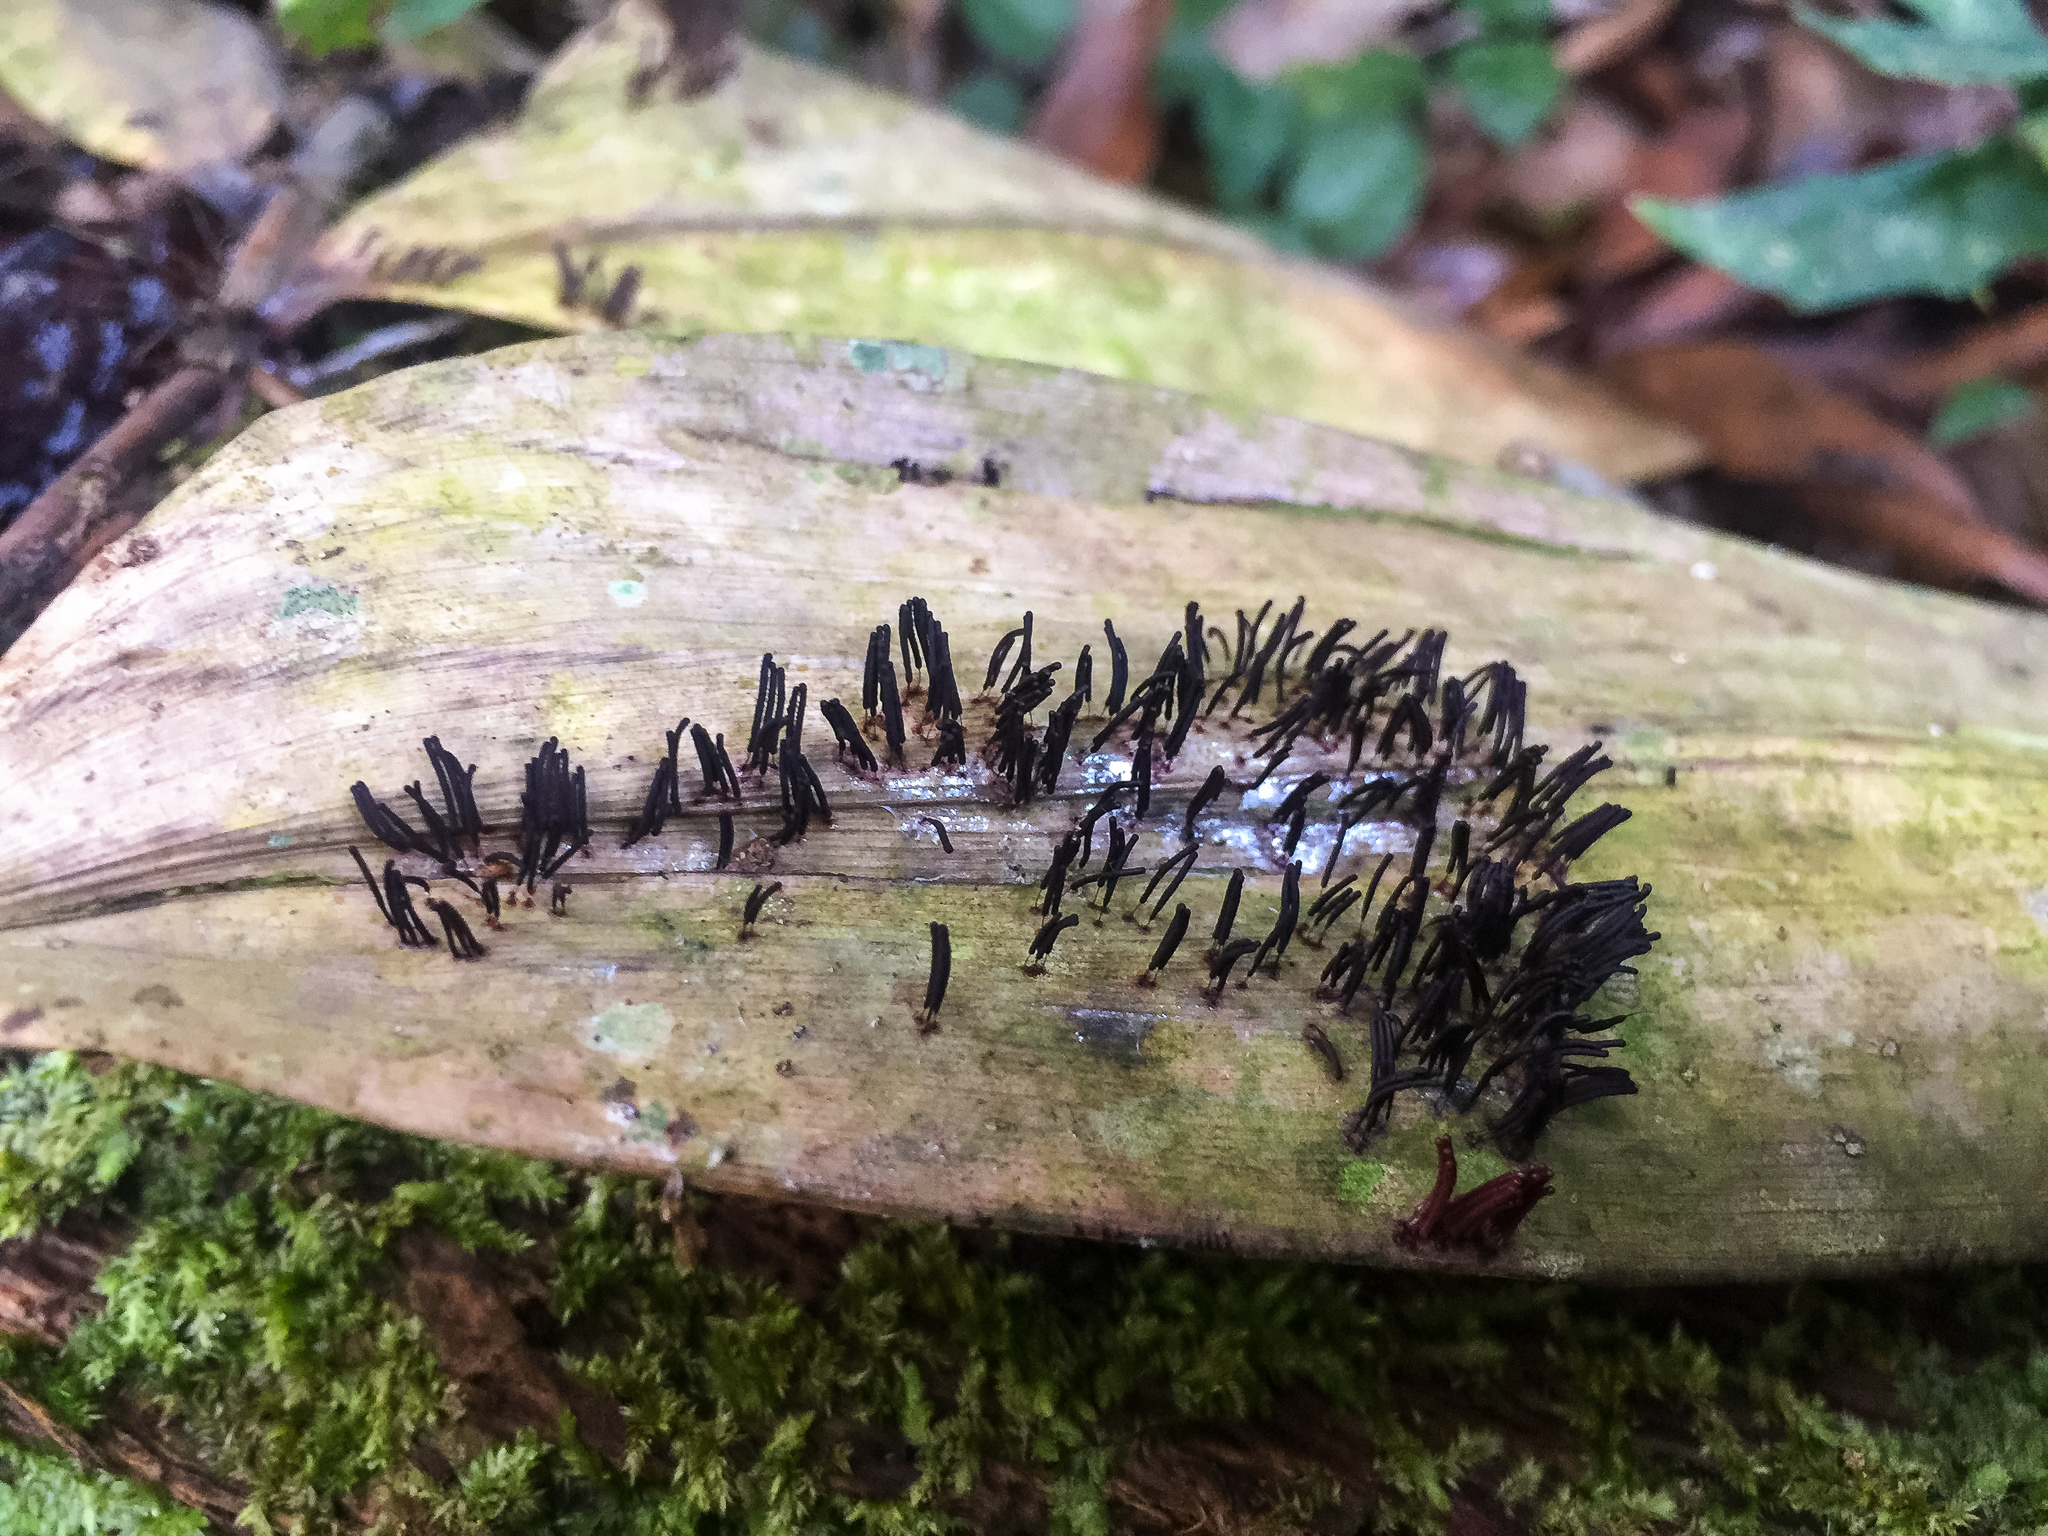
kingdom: Protozoa
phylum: Mycetozoa
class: Myxomycetes
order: Stemonitidales
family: Stemonitidaceae
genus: Stemonitis
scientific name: Stemonitis fusca
